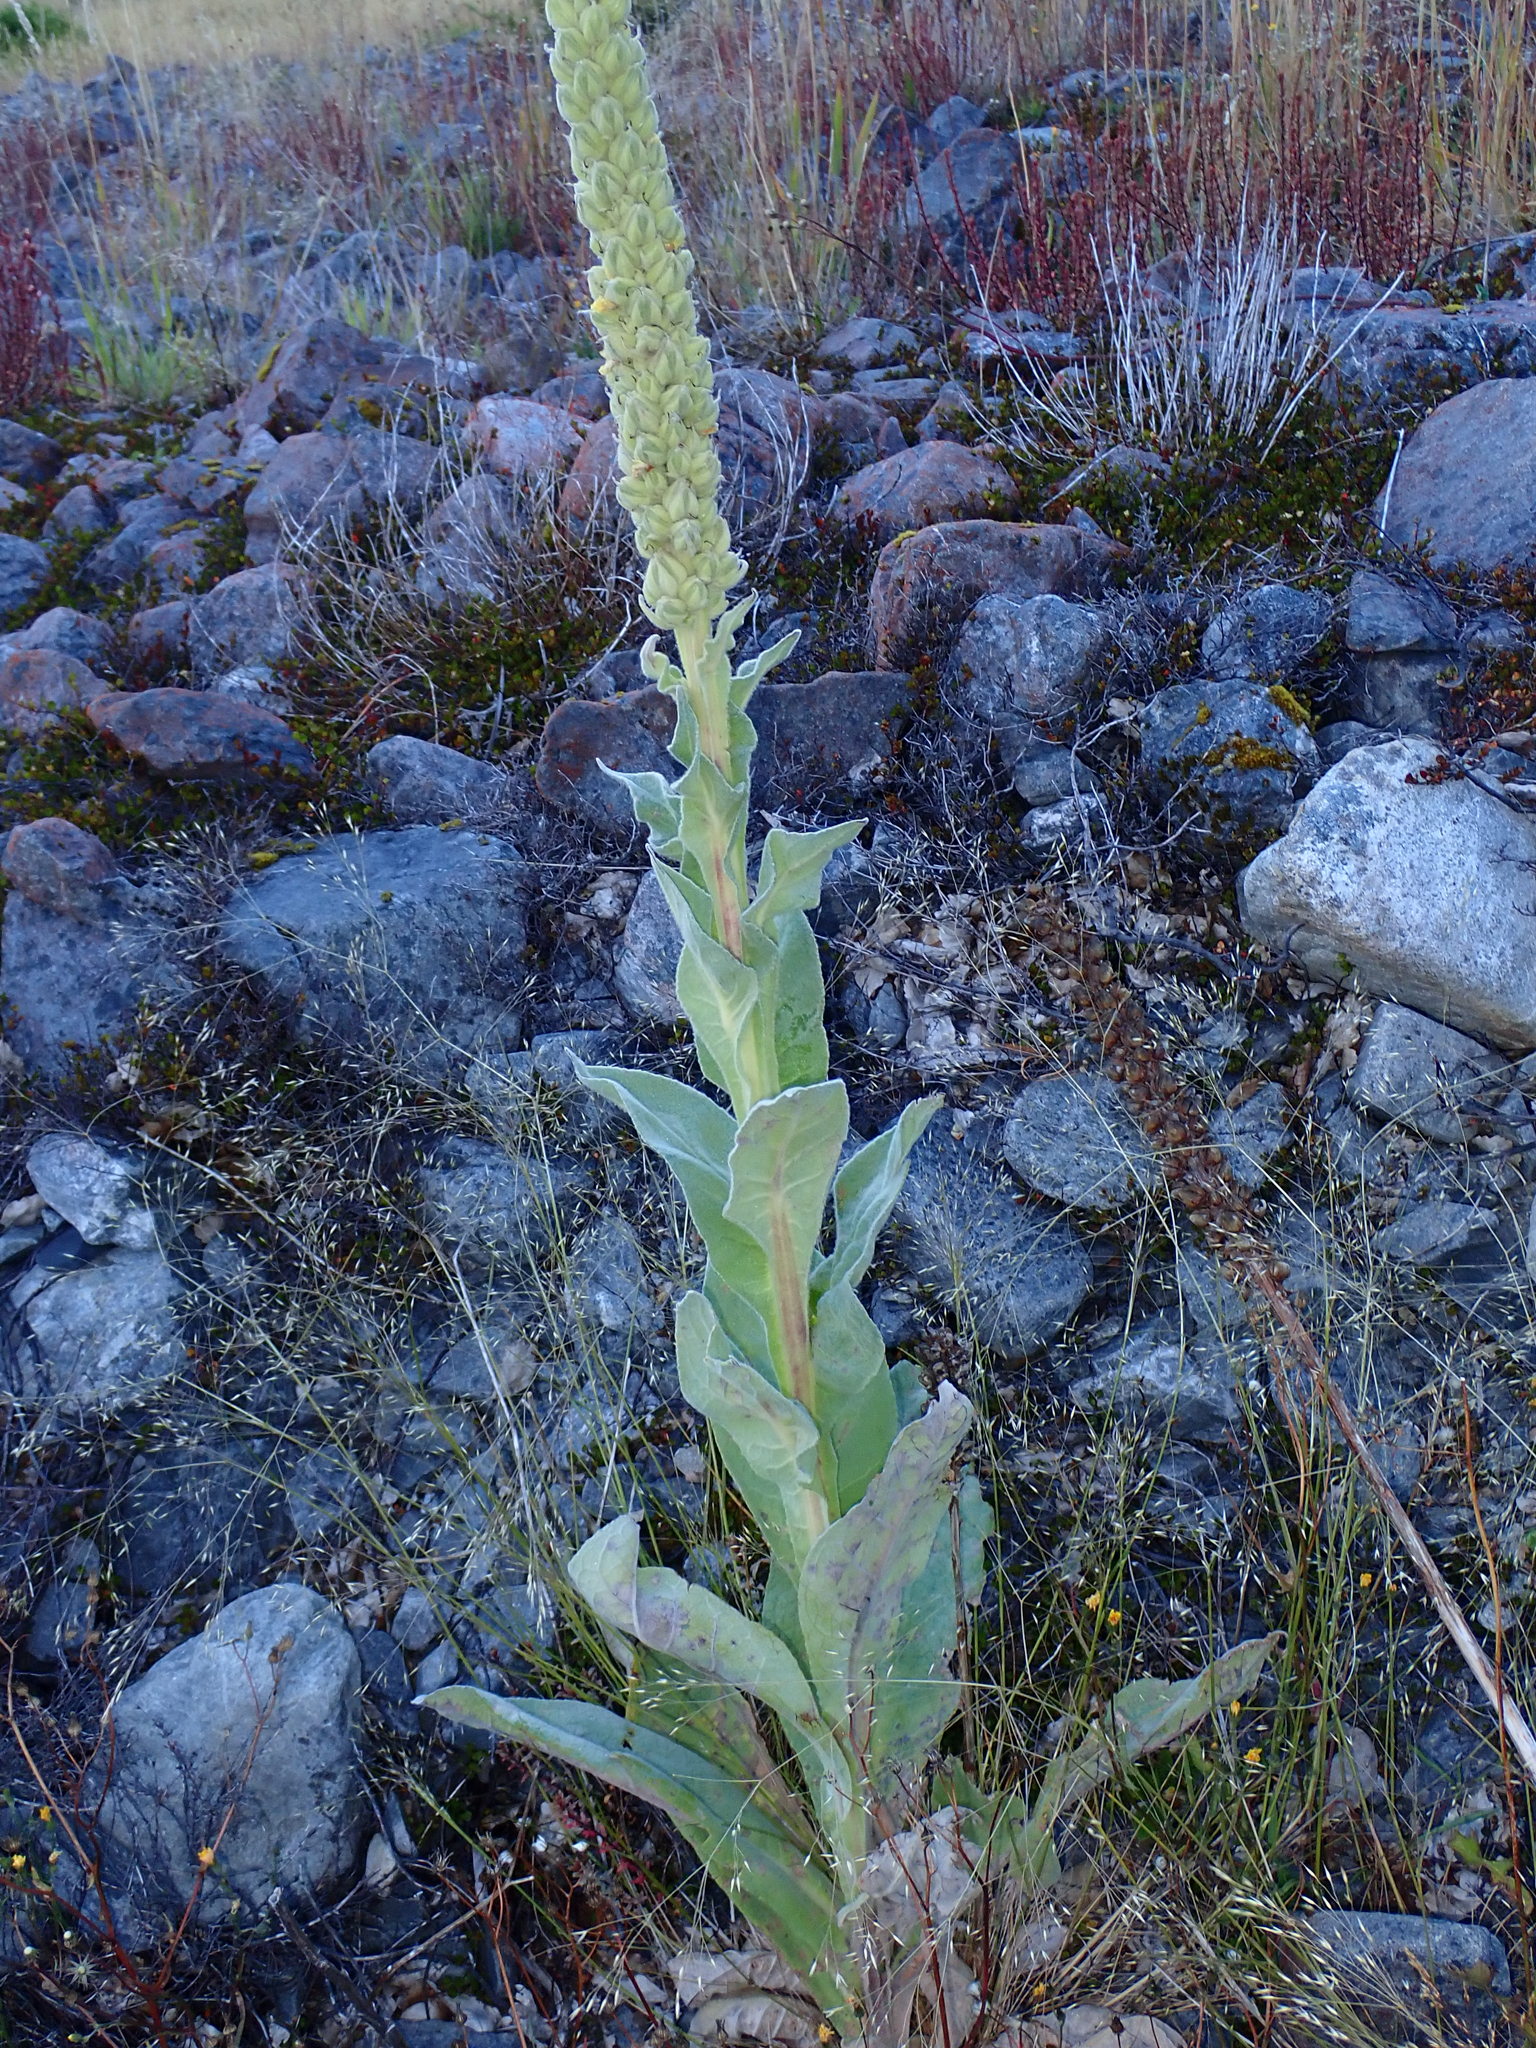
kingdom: Plantae
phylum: Tracheophyta
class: Magnoliopsida
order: Lamiales
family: Scrophulariaceae
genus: Verbascum
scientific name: Verbascum thapsus
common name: Common mullein
